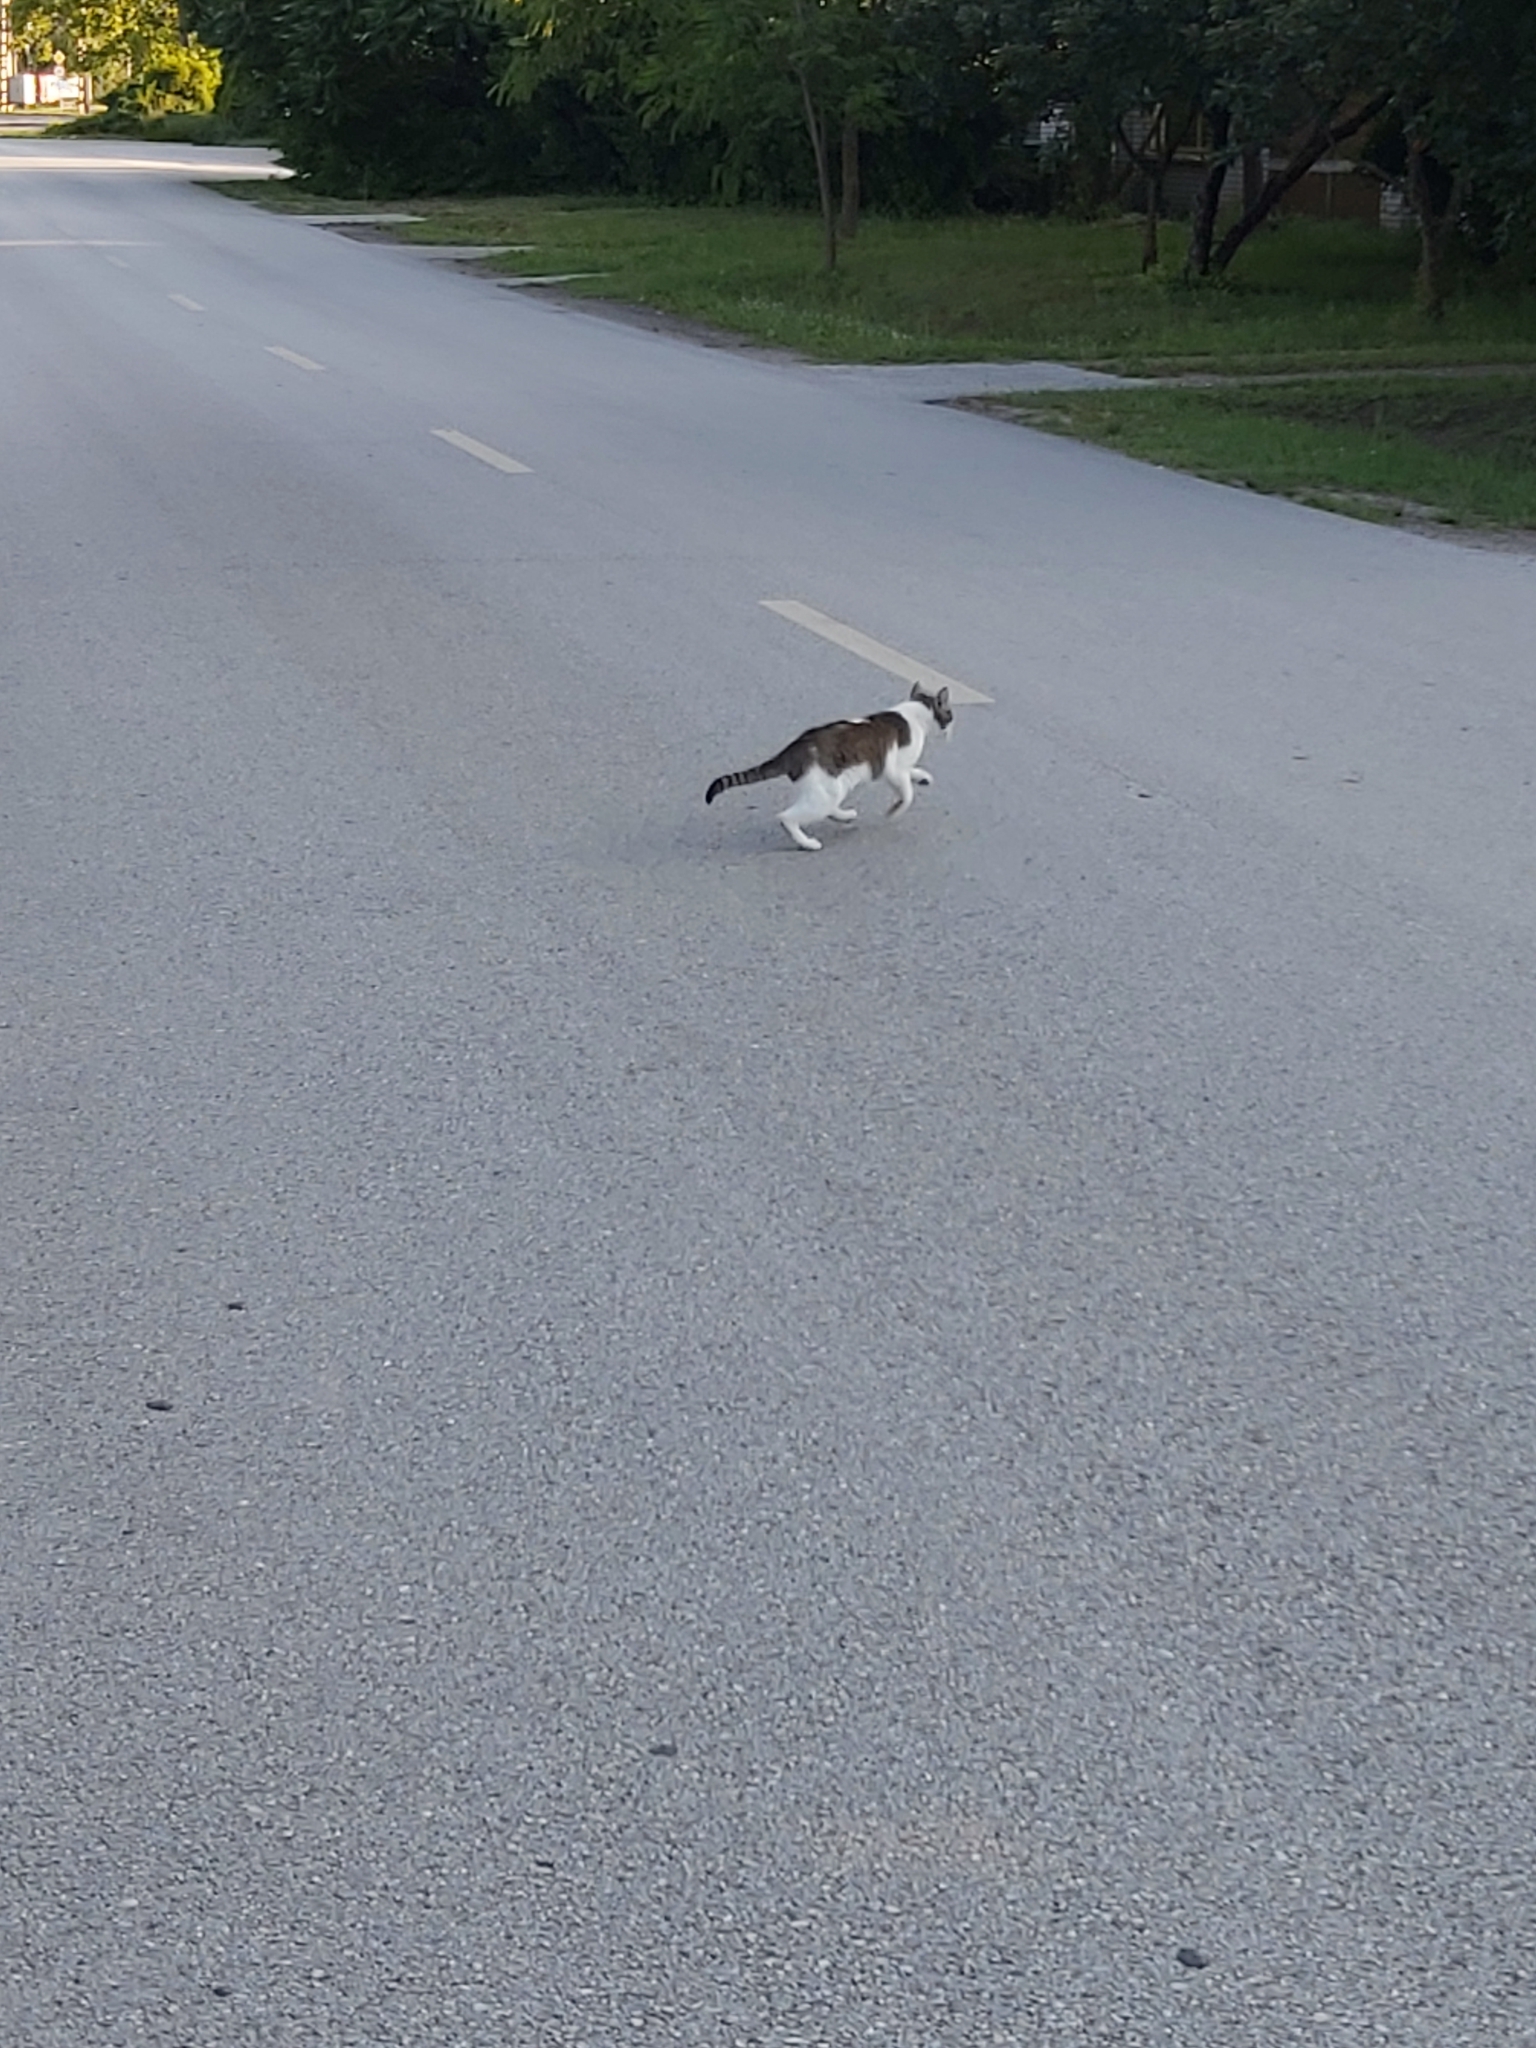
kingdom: Animalia
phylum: Chordata
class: Mammalia
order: Carnivora
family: Felidae
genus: Felis
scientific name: Felis catus
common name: Domestic cat
